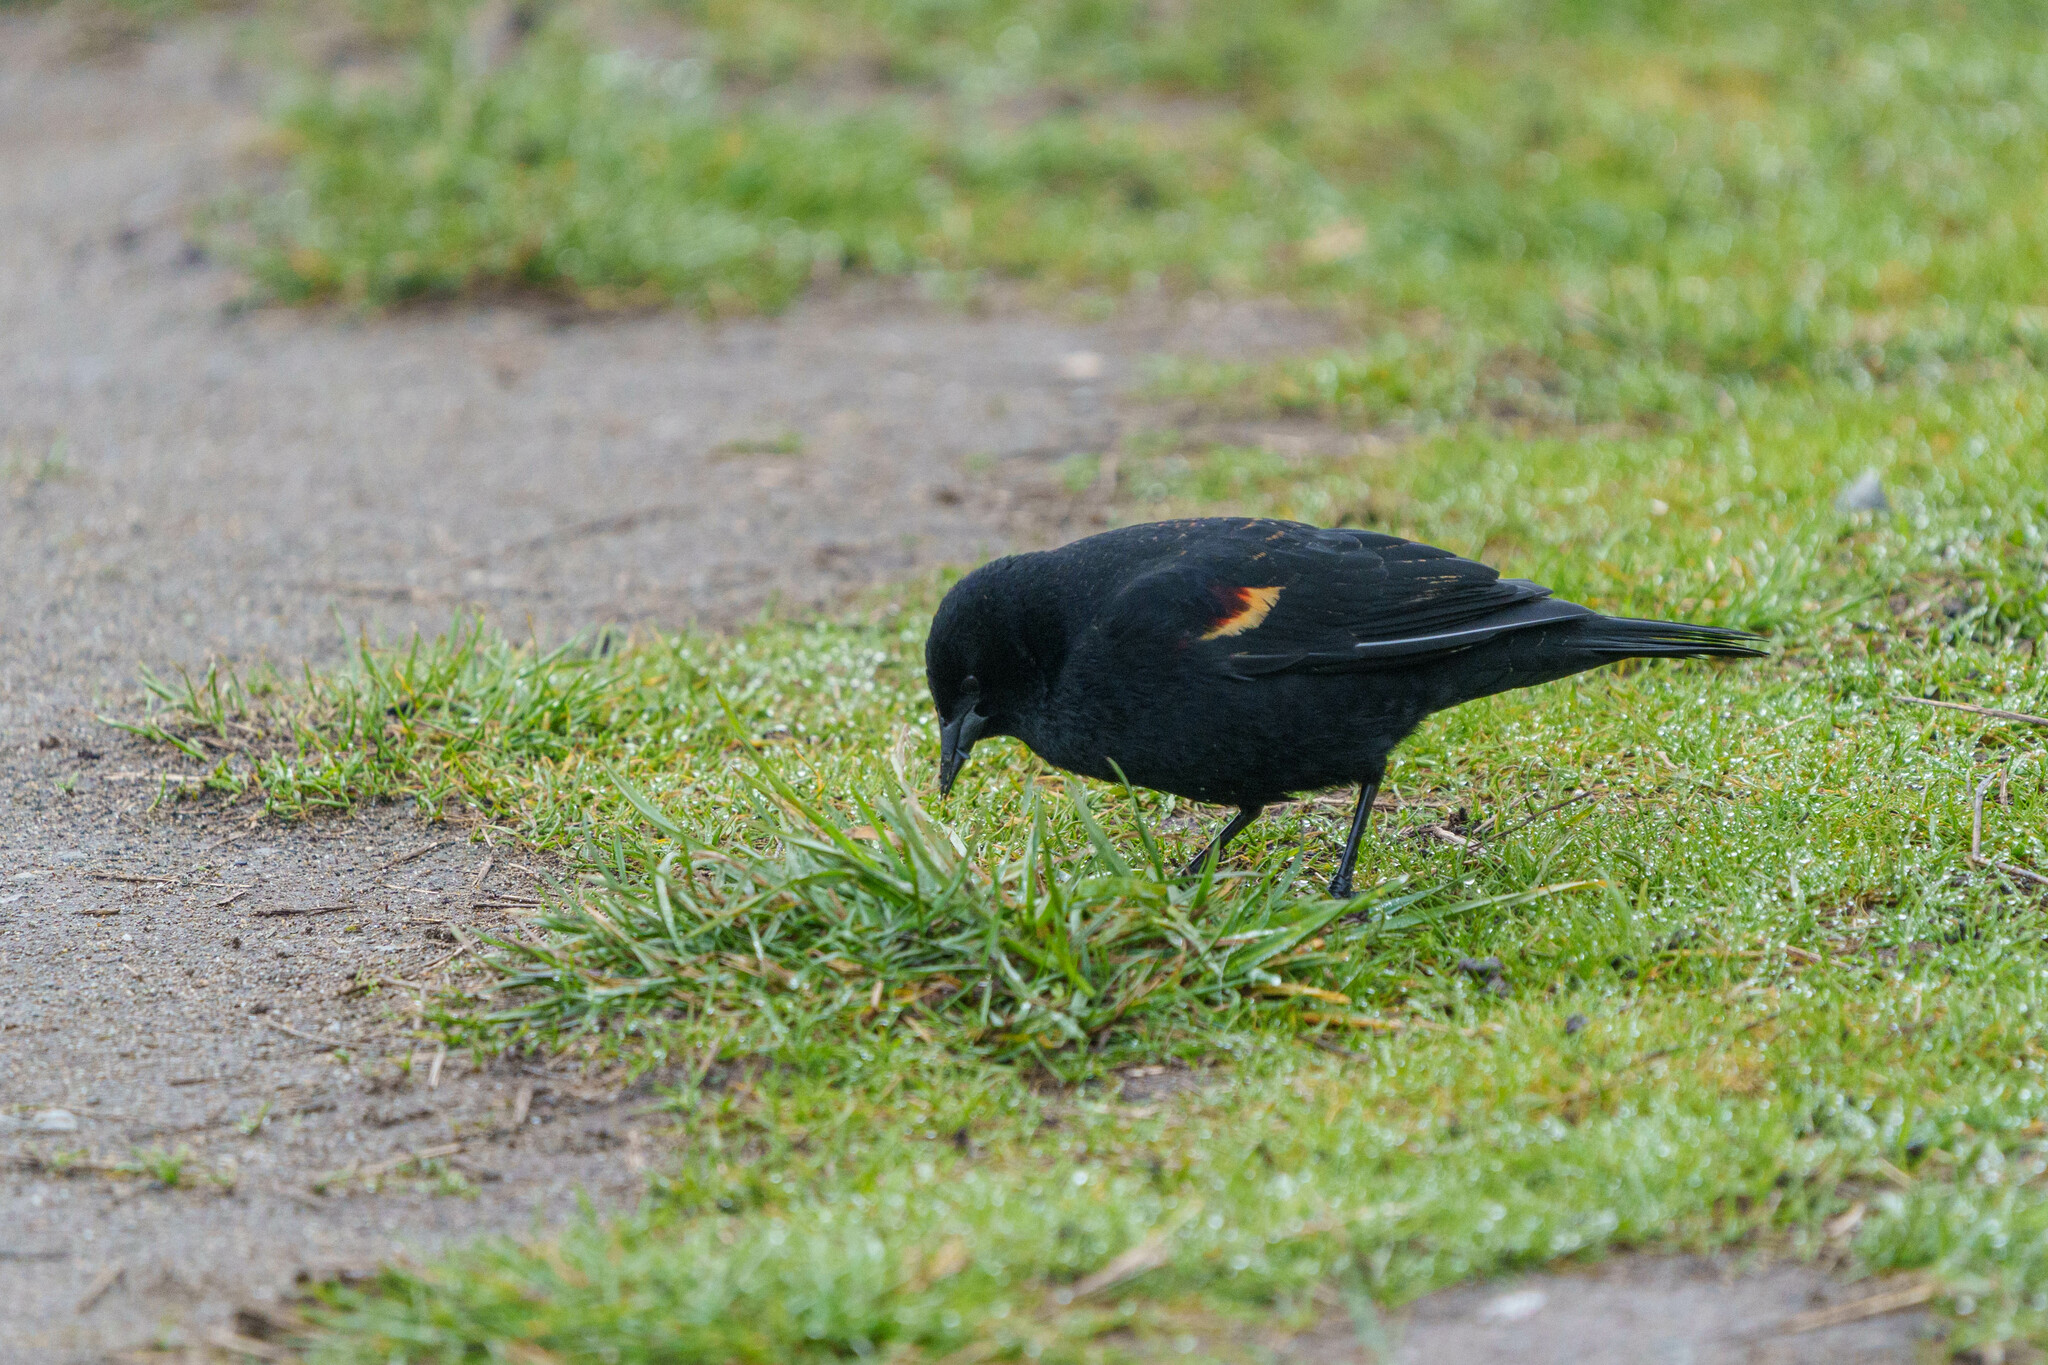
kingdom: Animalia
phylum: Chordata
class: Aves
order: Passeriformes
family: Icteridae
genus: Agelaius
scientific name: Agelaius phoeniceus
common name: Red-winged blackbird
